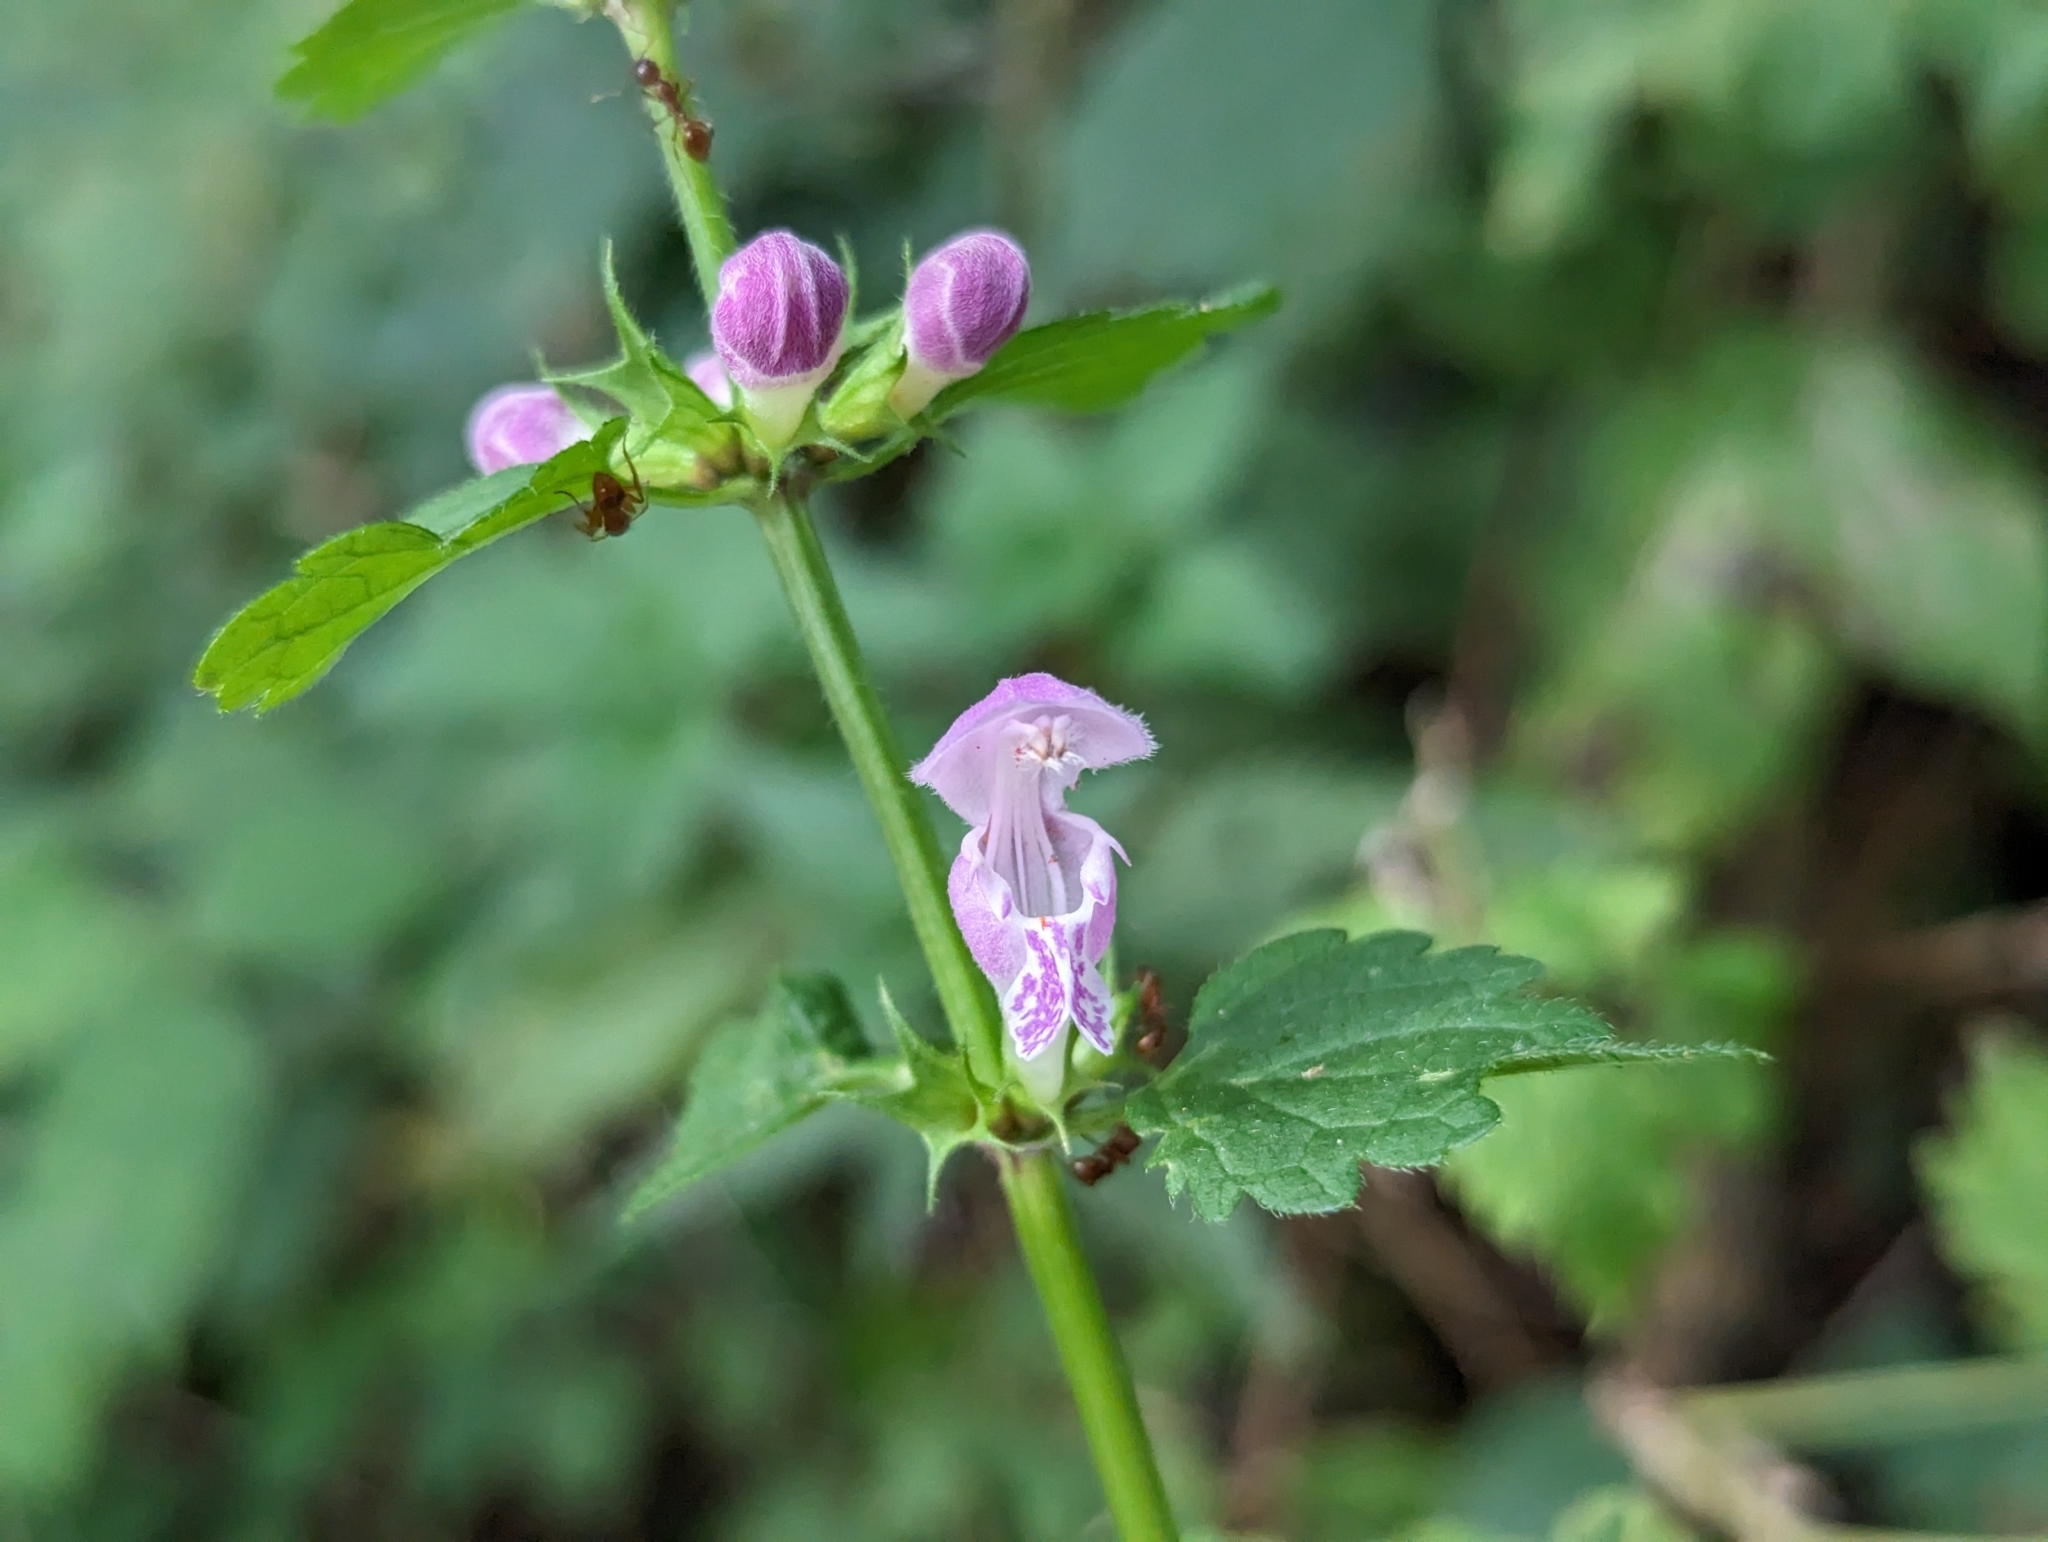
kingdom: Plantae
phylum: Tracheophyta
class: Magnoliopsida
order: Lamiales
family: Lamiaceae
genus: Lamium
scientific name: Lamium maculatum
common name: Spotted dead-nettle
